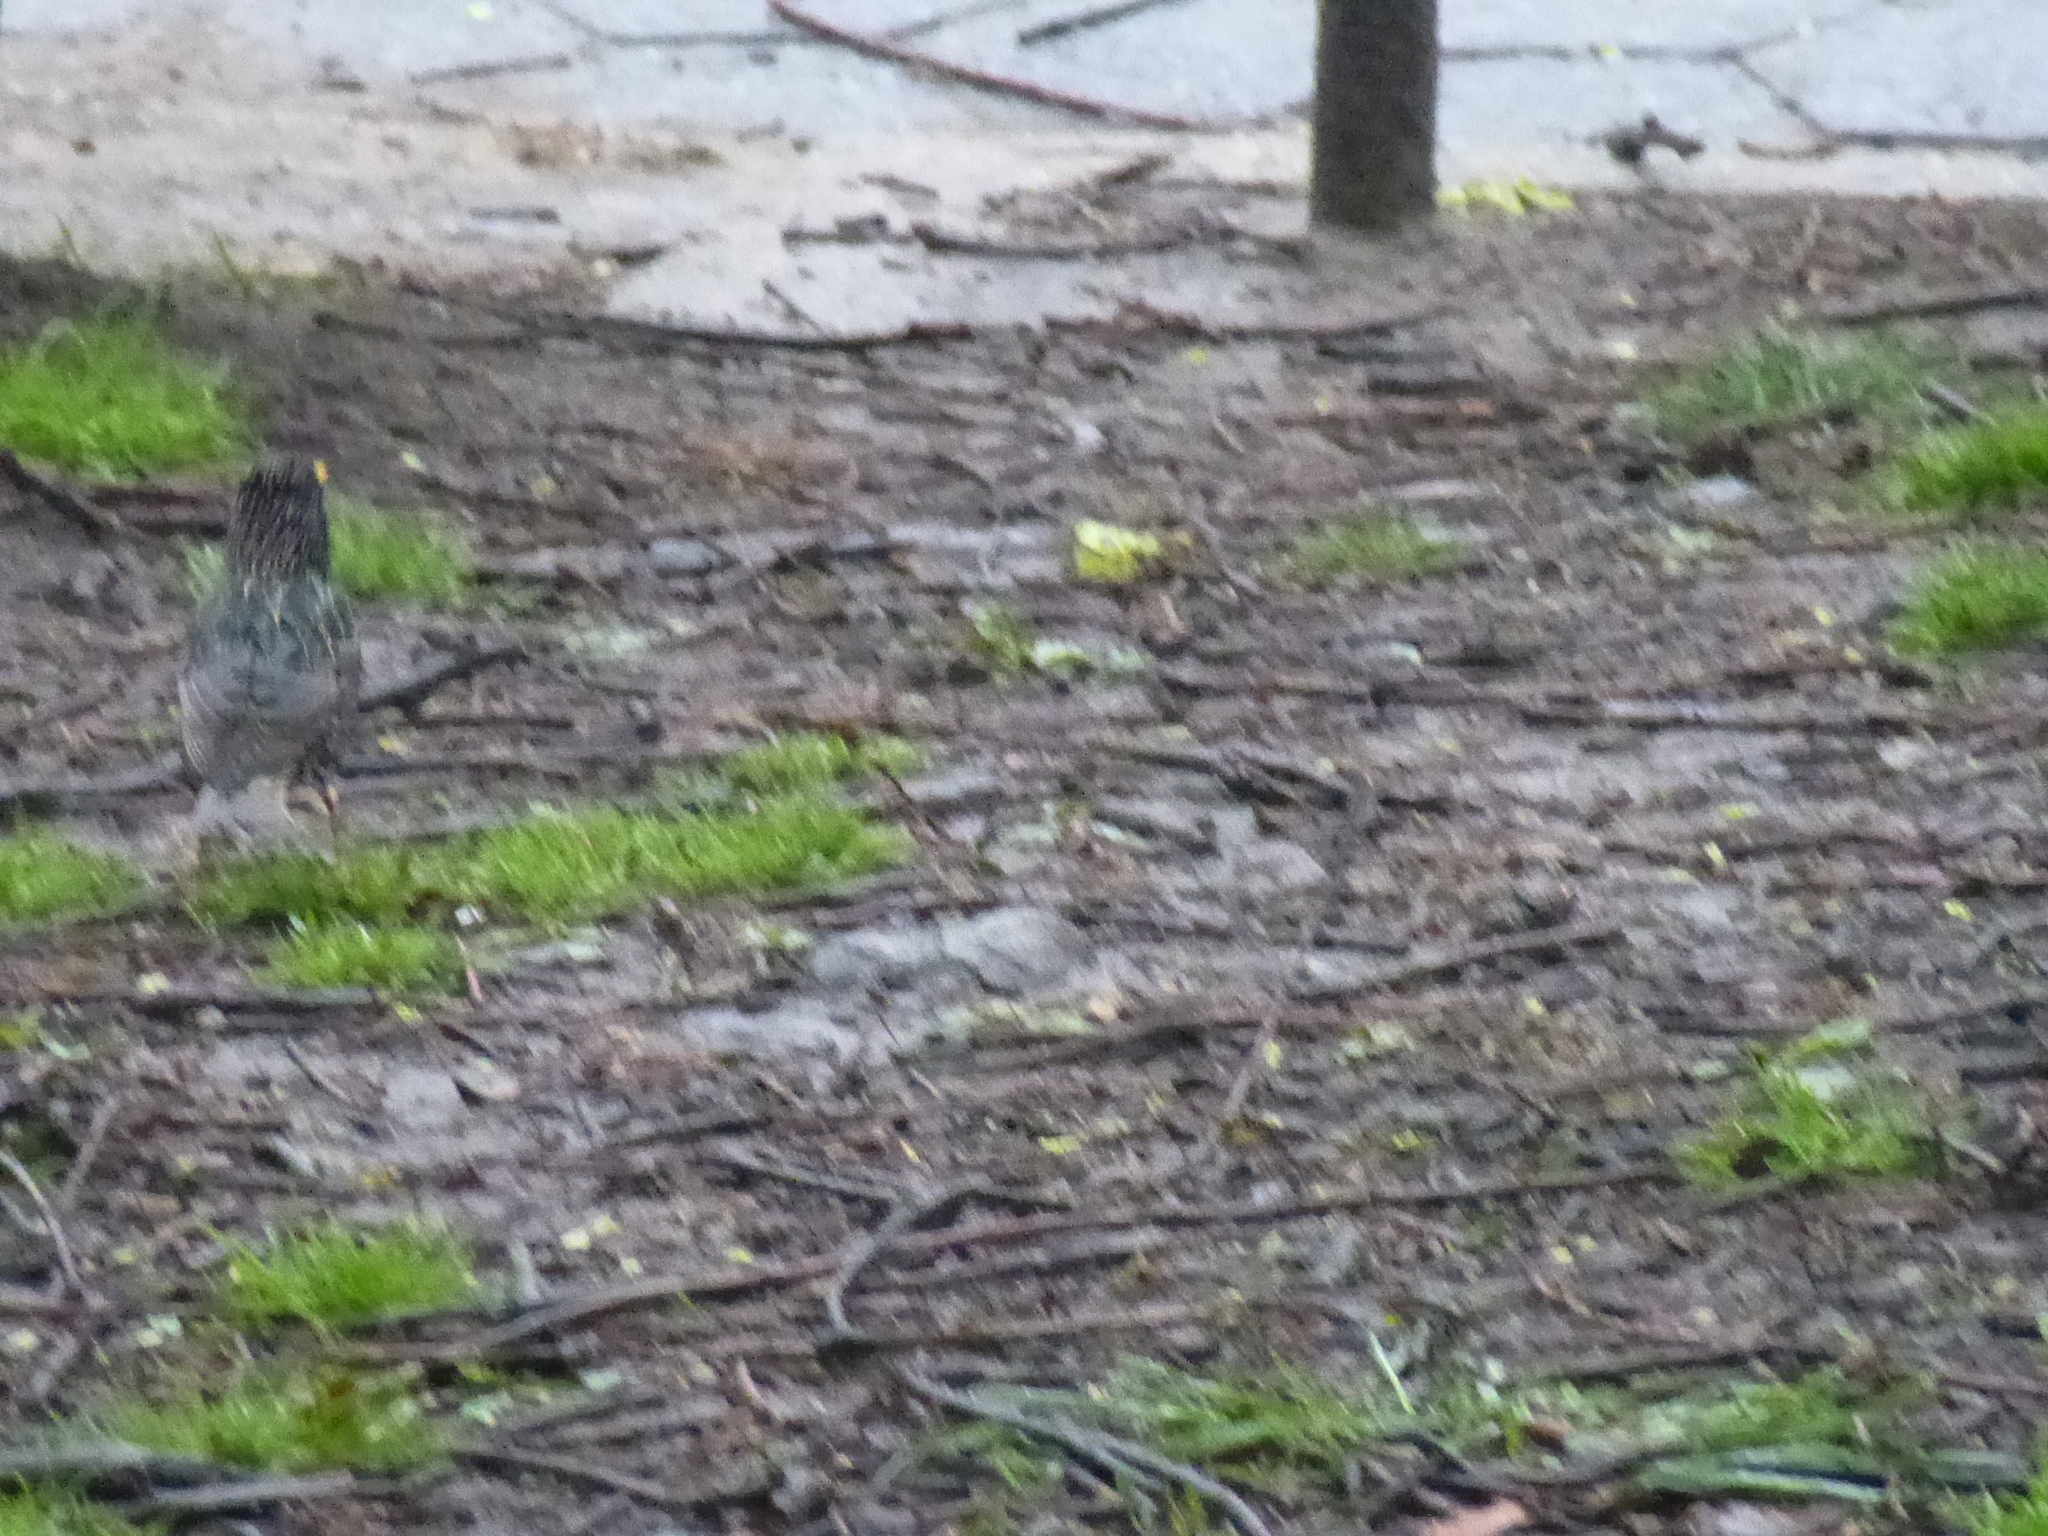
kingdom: Animalia
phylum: Chordata
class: Aves
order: Passeriformes
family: Sturnidae
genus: Sturnus
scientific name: Sturnus vulgaris
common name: Common starling
